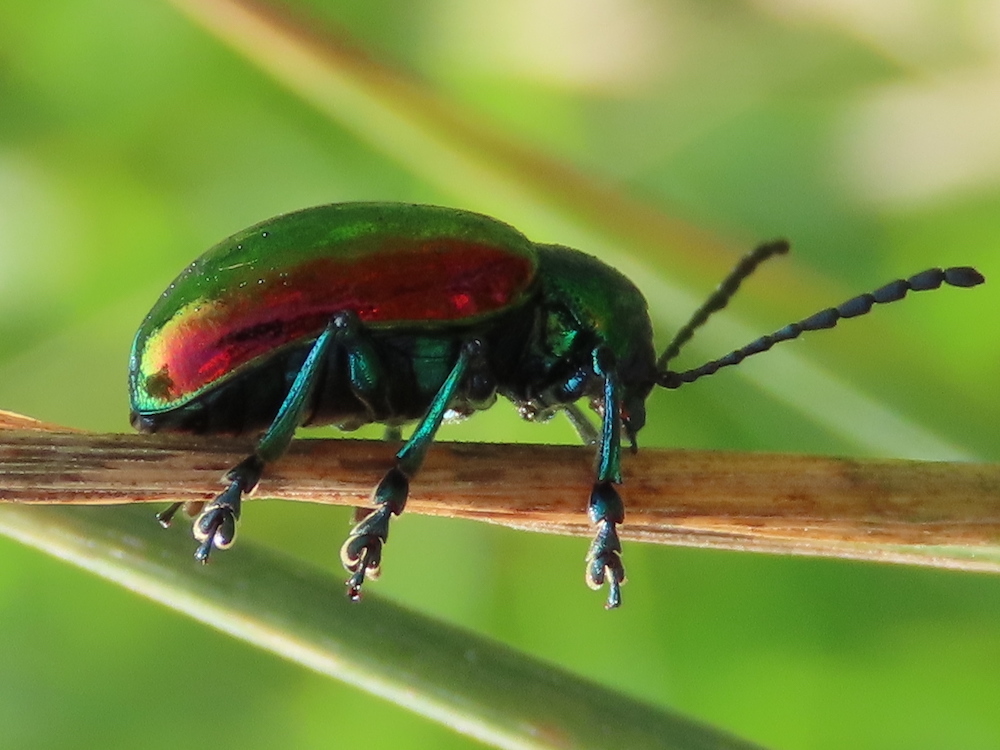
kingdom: Animalia
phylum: Arthropoda
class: Insecta
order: Coleoptera
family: Chrysomelidae
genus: Chrysochus
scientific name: Chrysochus auratus
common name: Dogbane leaf beetle
